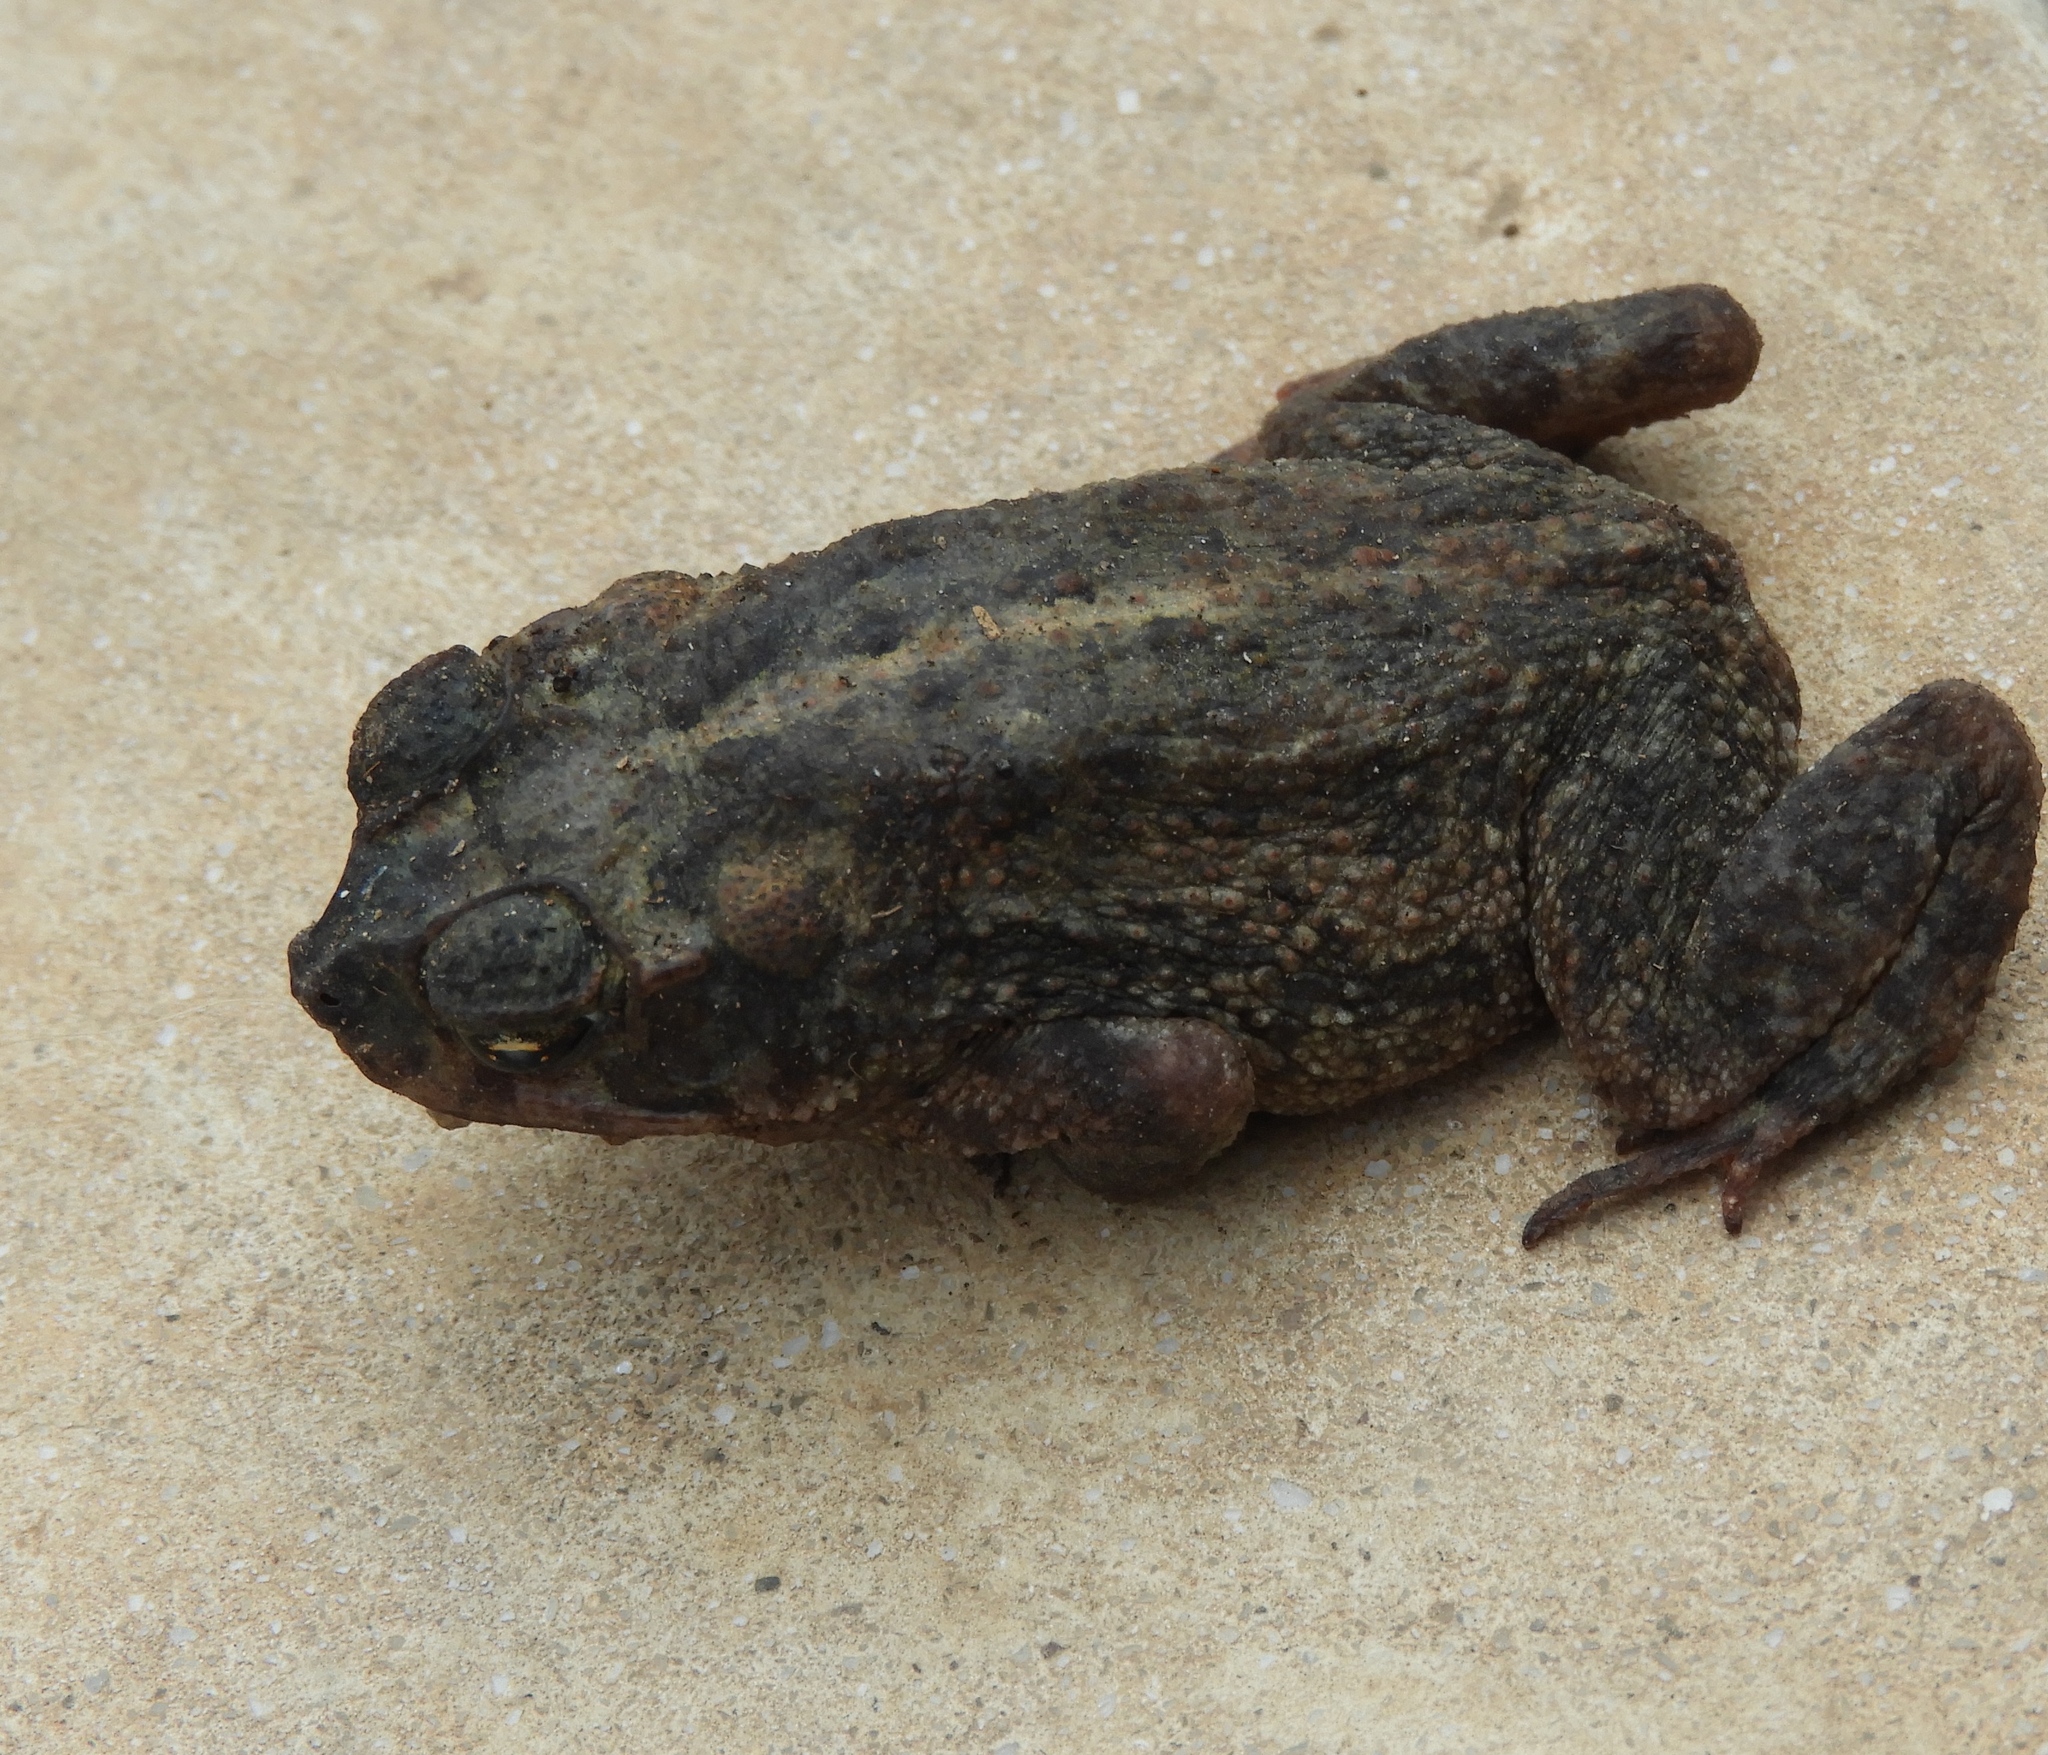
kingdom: Animalia
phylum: Chordata
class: Amphibia
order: Anura
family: Bufonidae
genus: Incilius
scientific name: Incilius mazatlanensis
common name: Sinaloa toad
